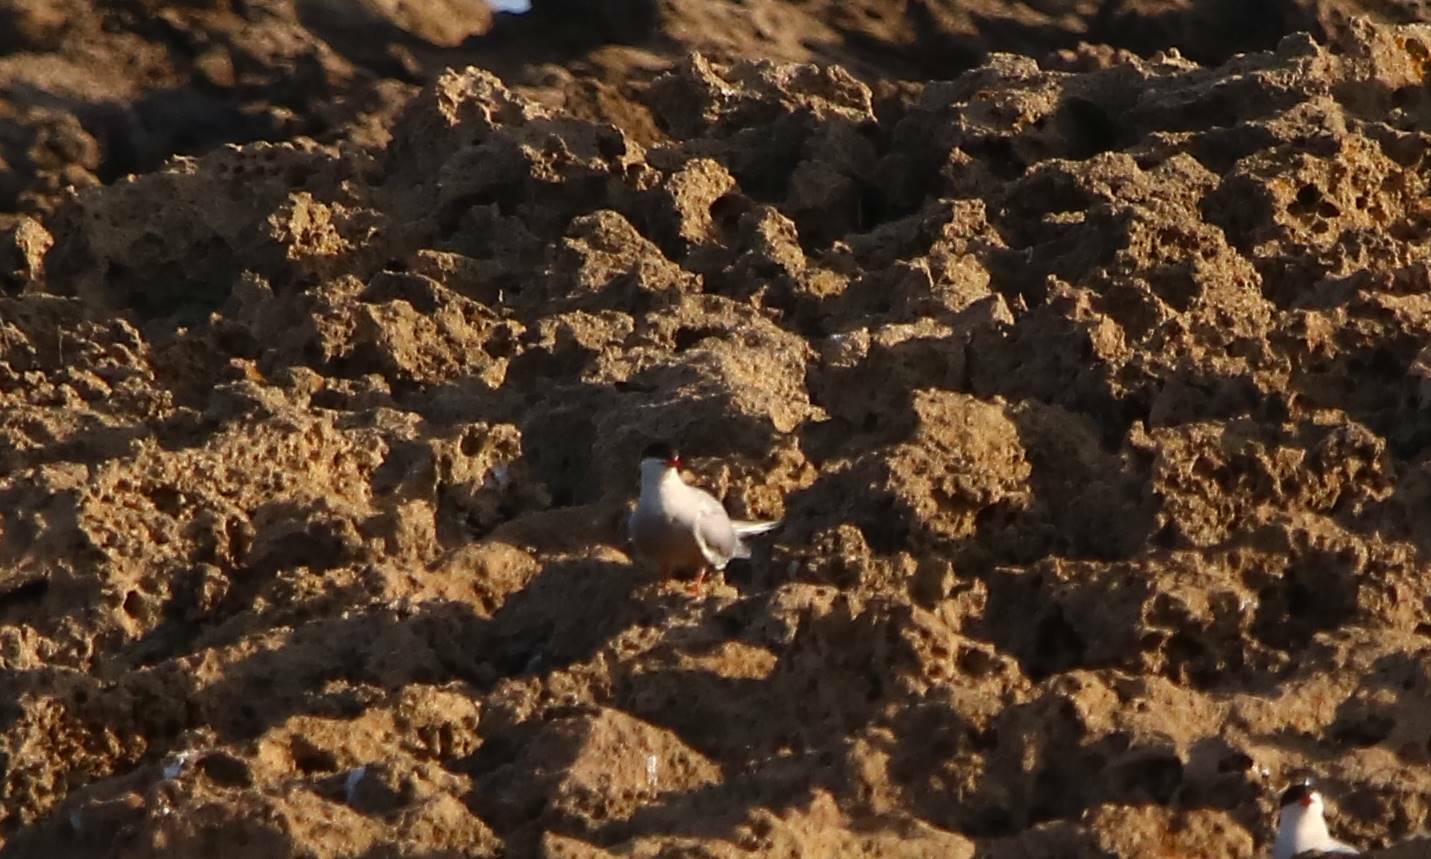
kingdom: Animalia
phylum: Chordata
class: Aves
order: Charadriiformes
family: Laridae
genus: Sterna
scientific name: Sterna hirundo
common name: Common tern
